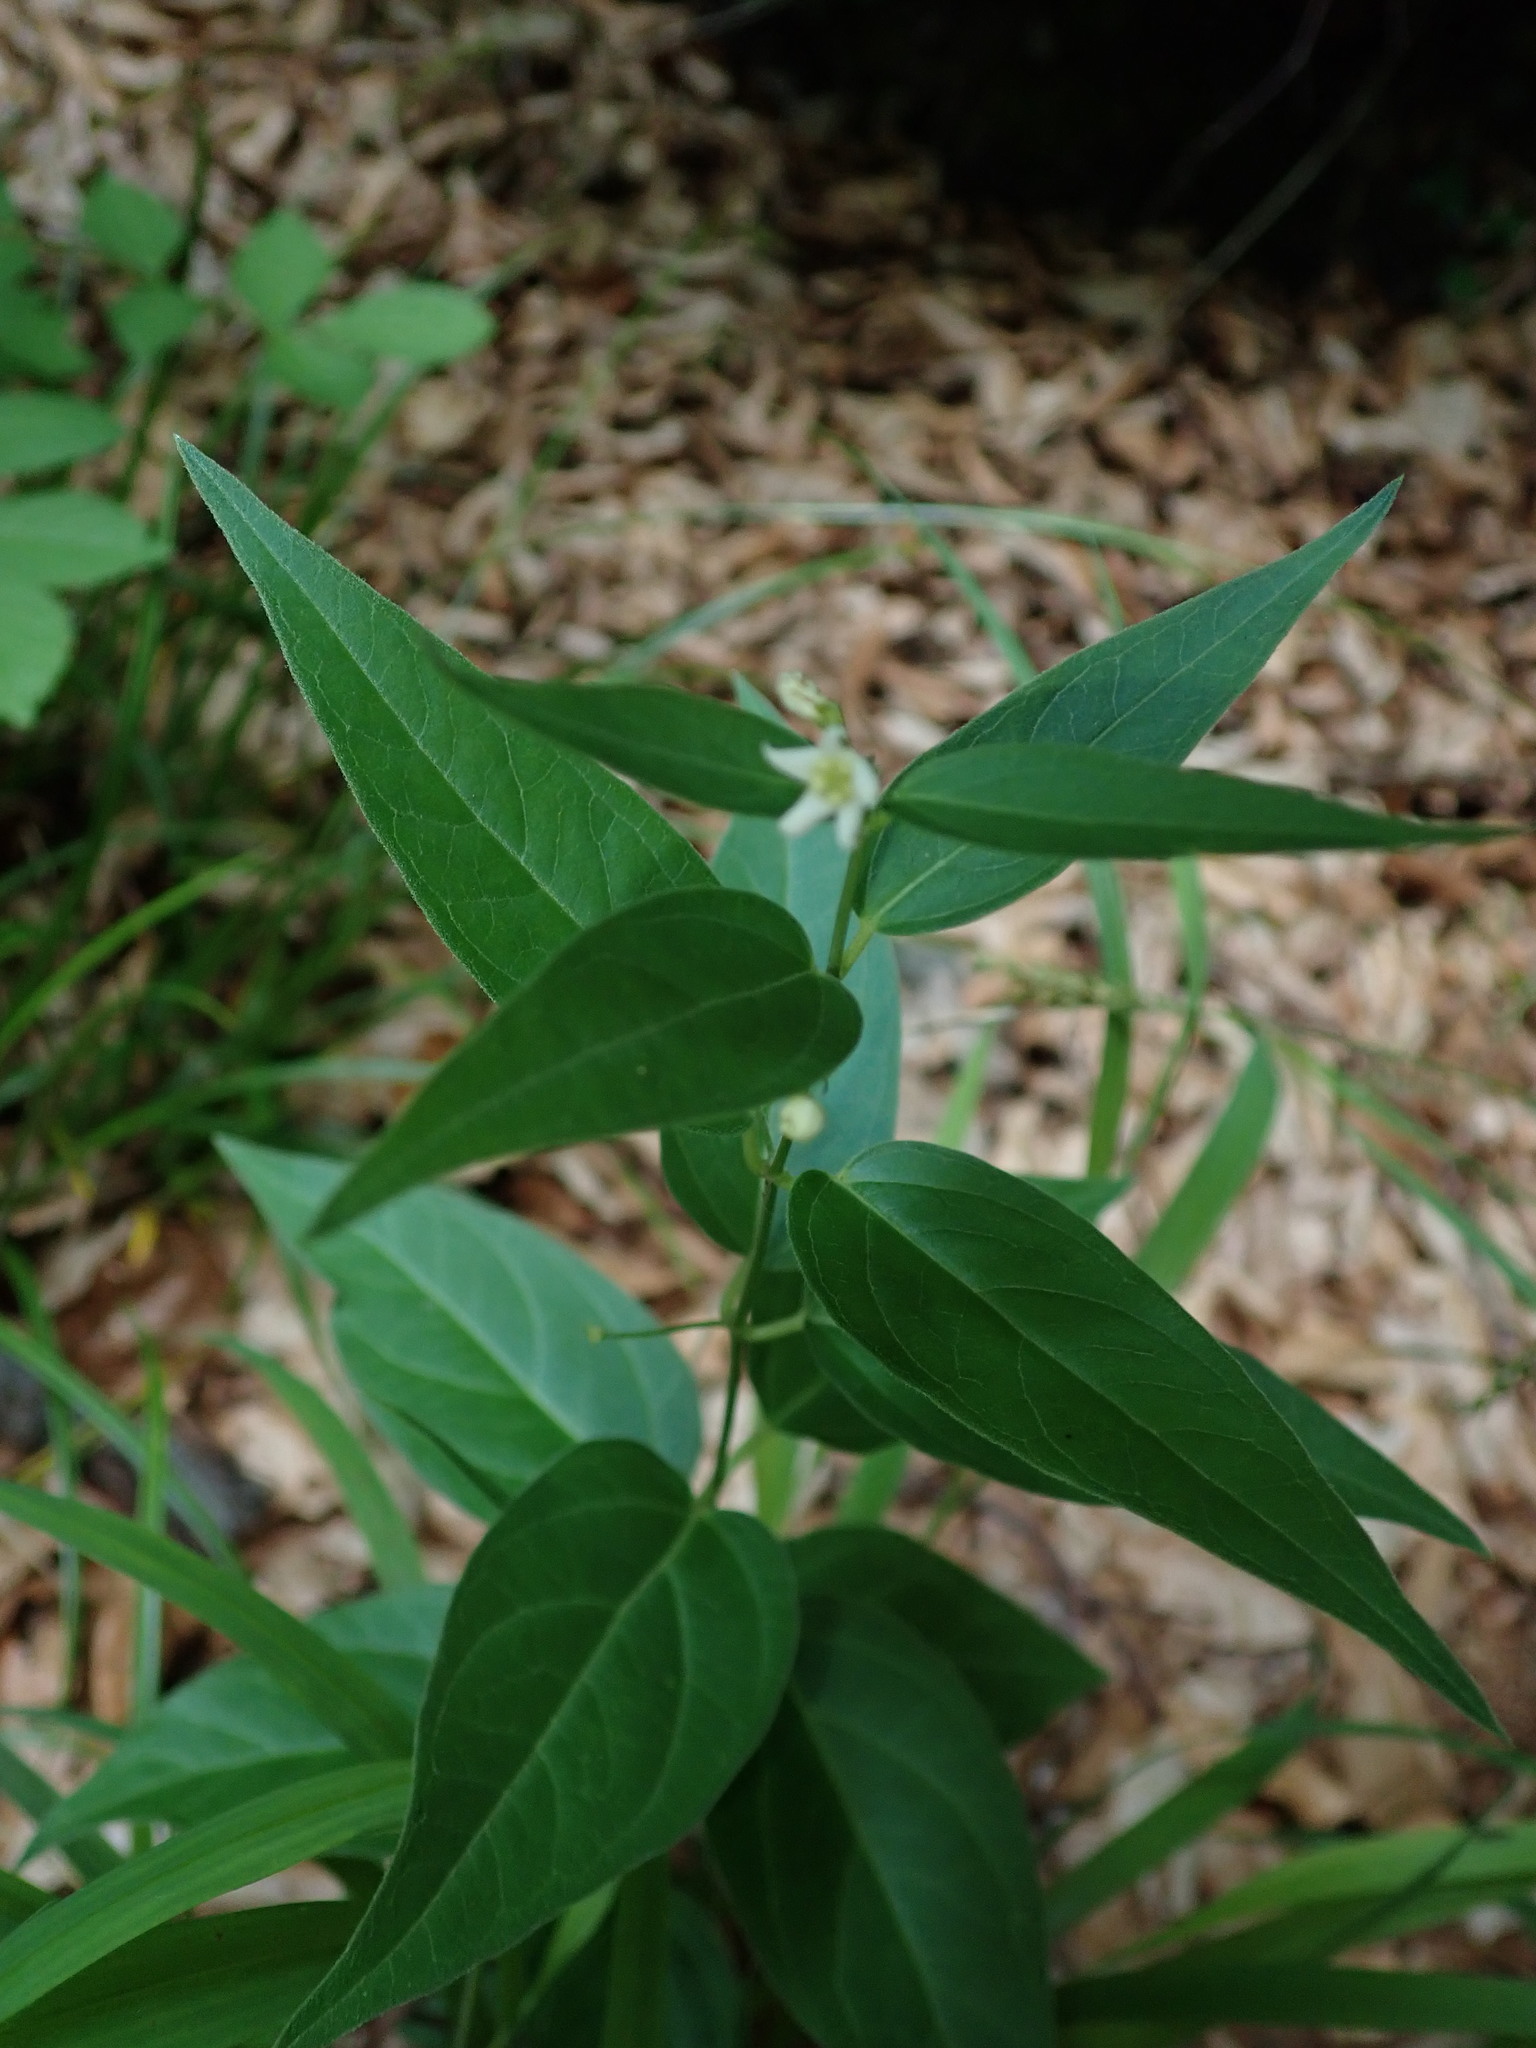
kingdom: Plantae
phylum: Tracheophyta
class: Magnoliopsida
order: Gentianales
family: Apocynaceae
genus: Vincetoxicum
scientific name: Vincetoxicum hirundinaria
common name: White swallowwort
